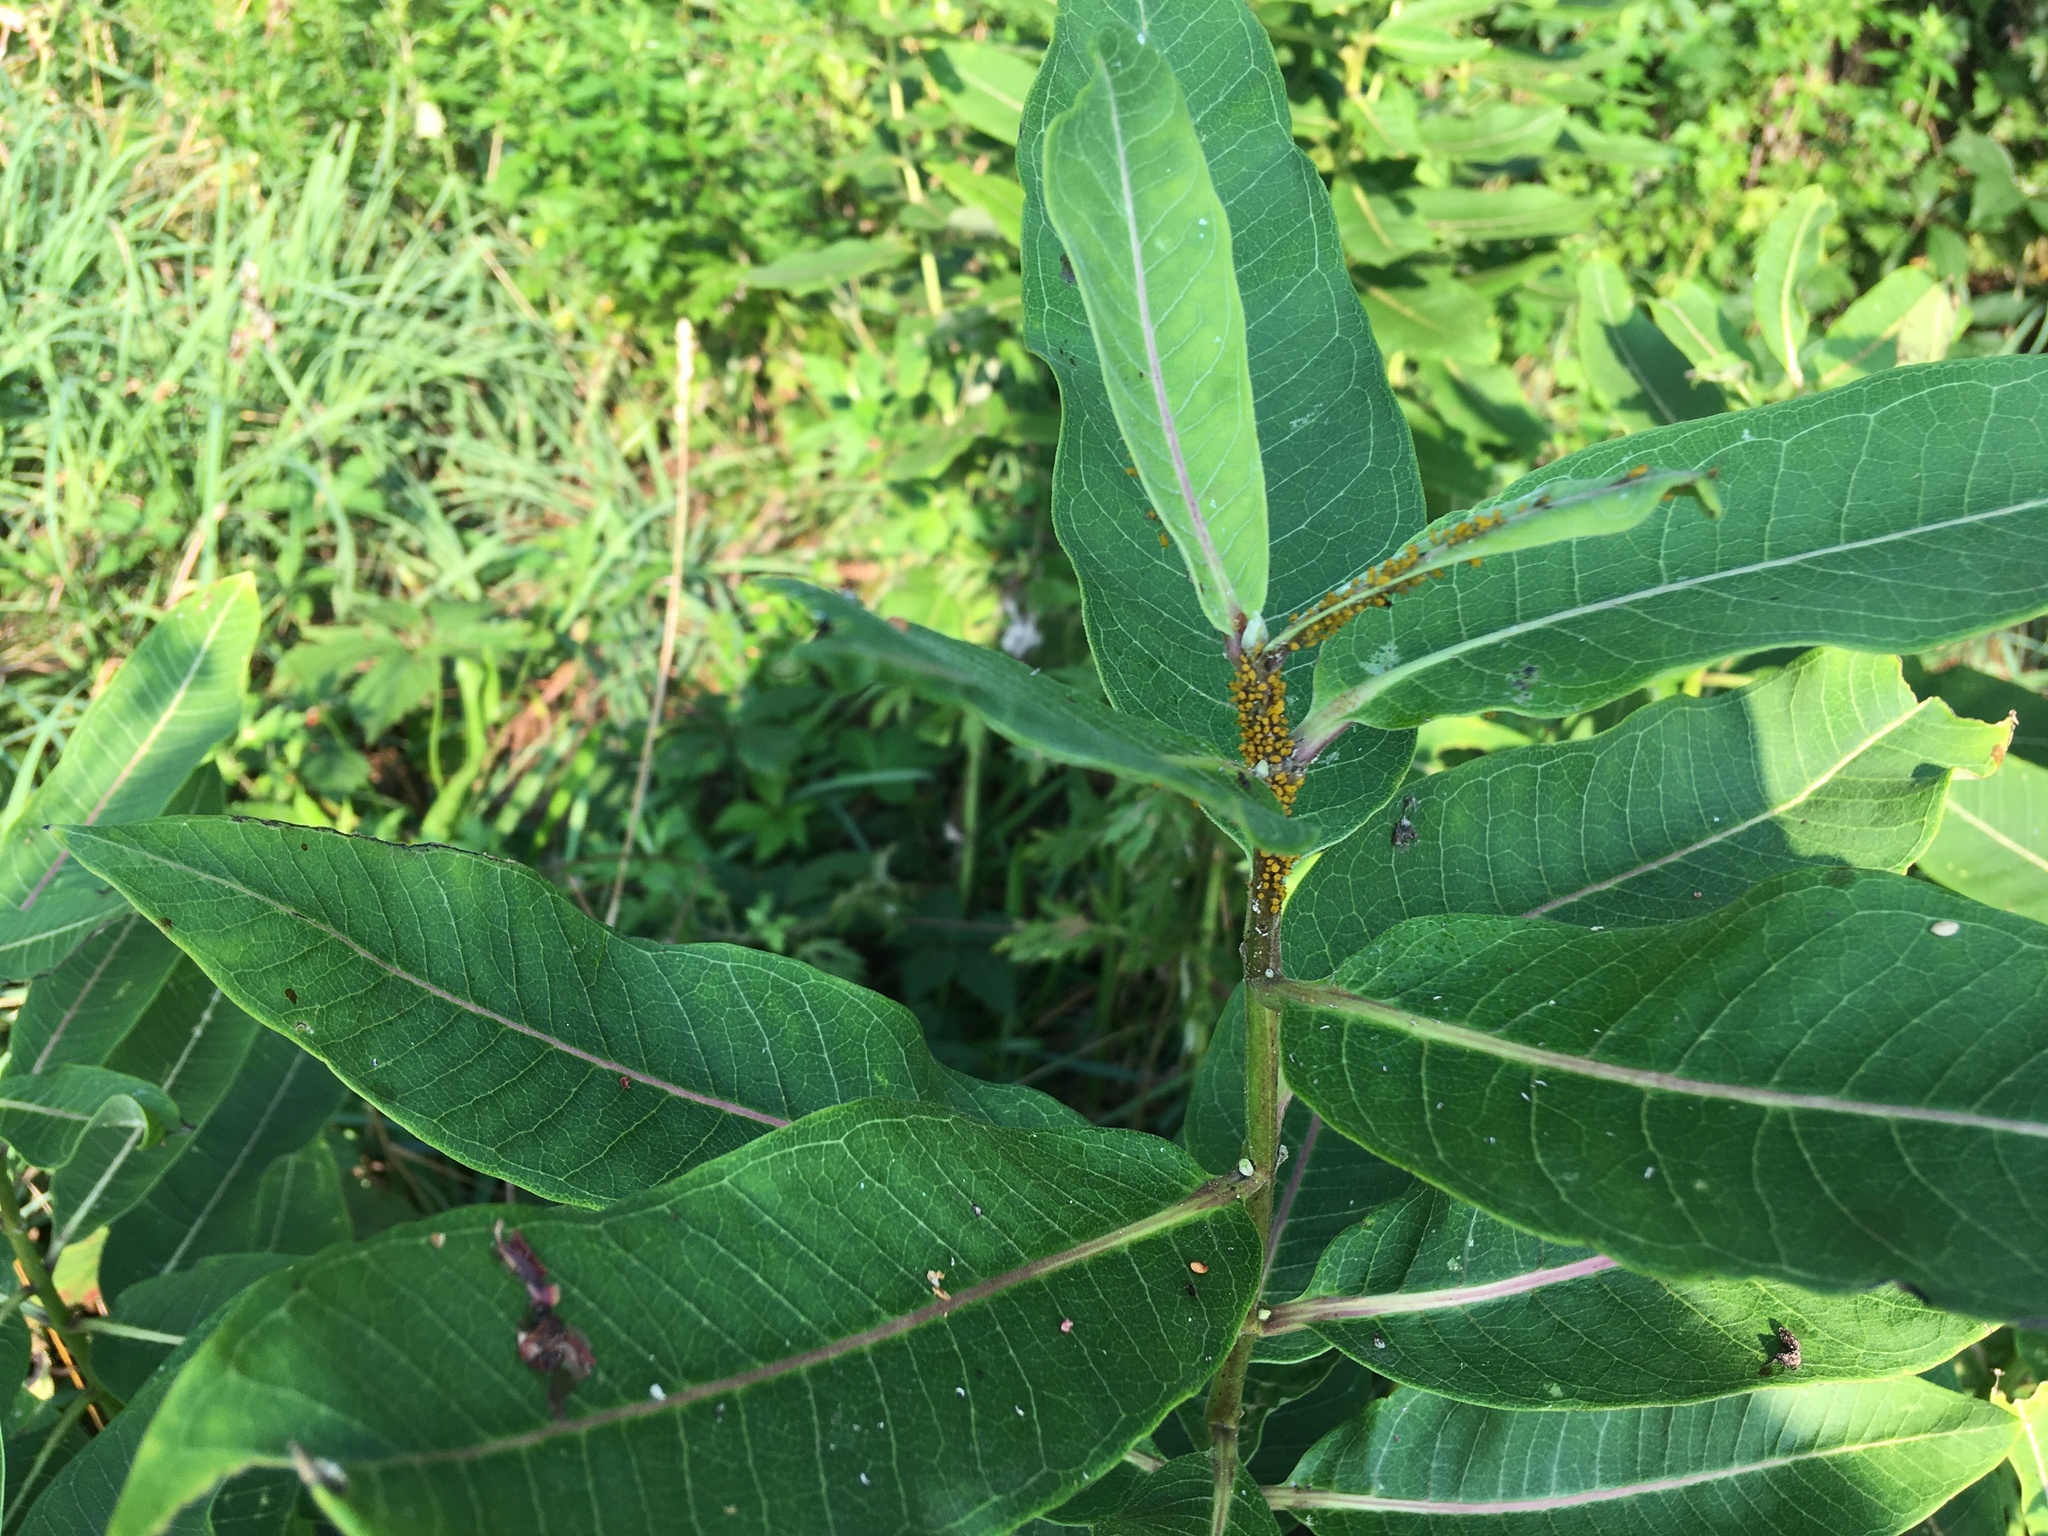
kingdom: Plantae
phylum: Tracheophyta
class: Magnoliopsida
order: Gentianales
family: Apocynaceae
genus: Asclepias
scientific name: Asclepias syriaca
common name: Common milkweed
